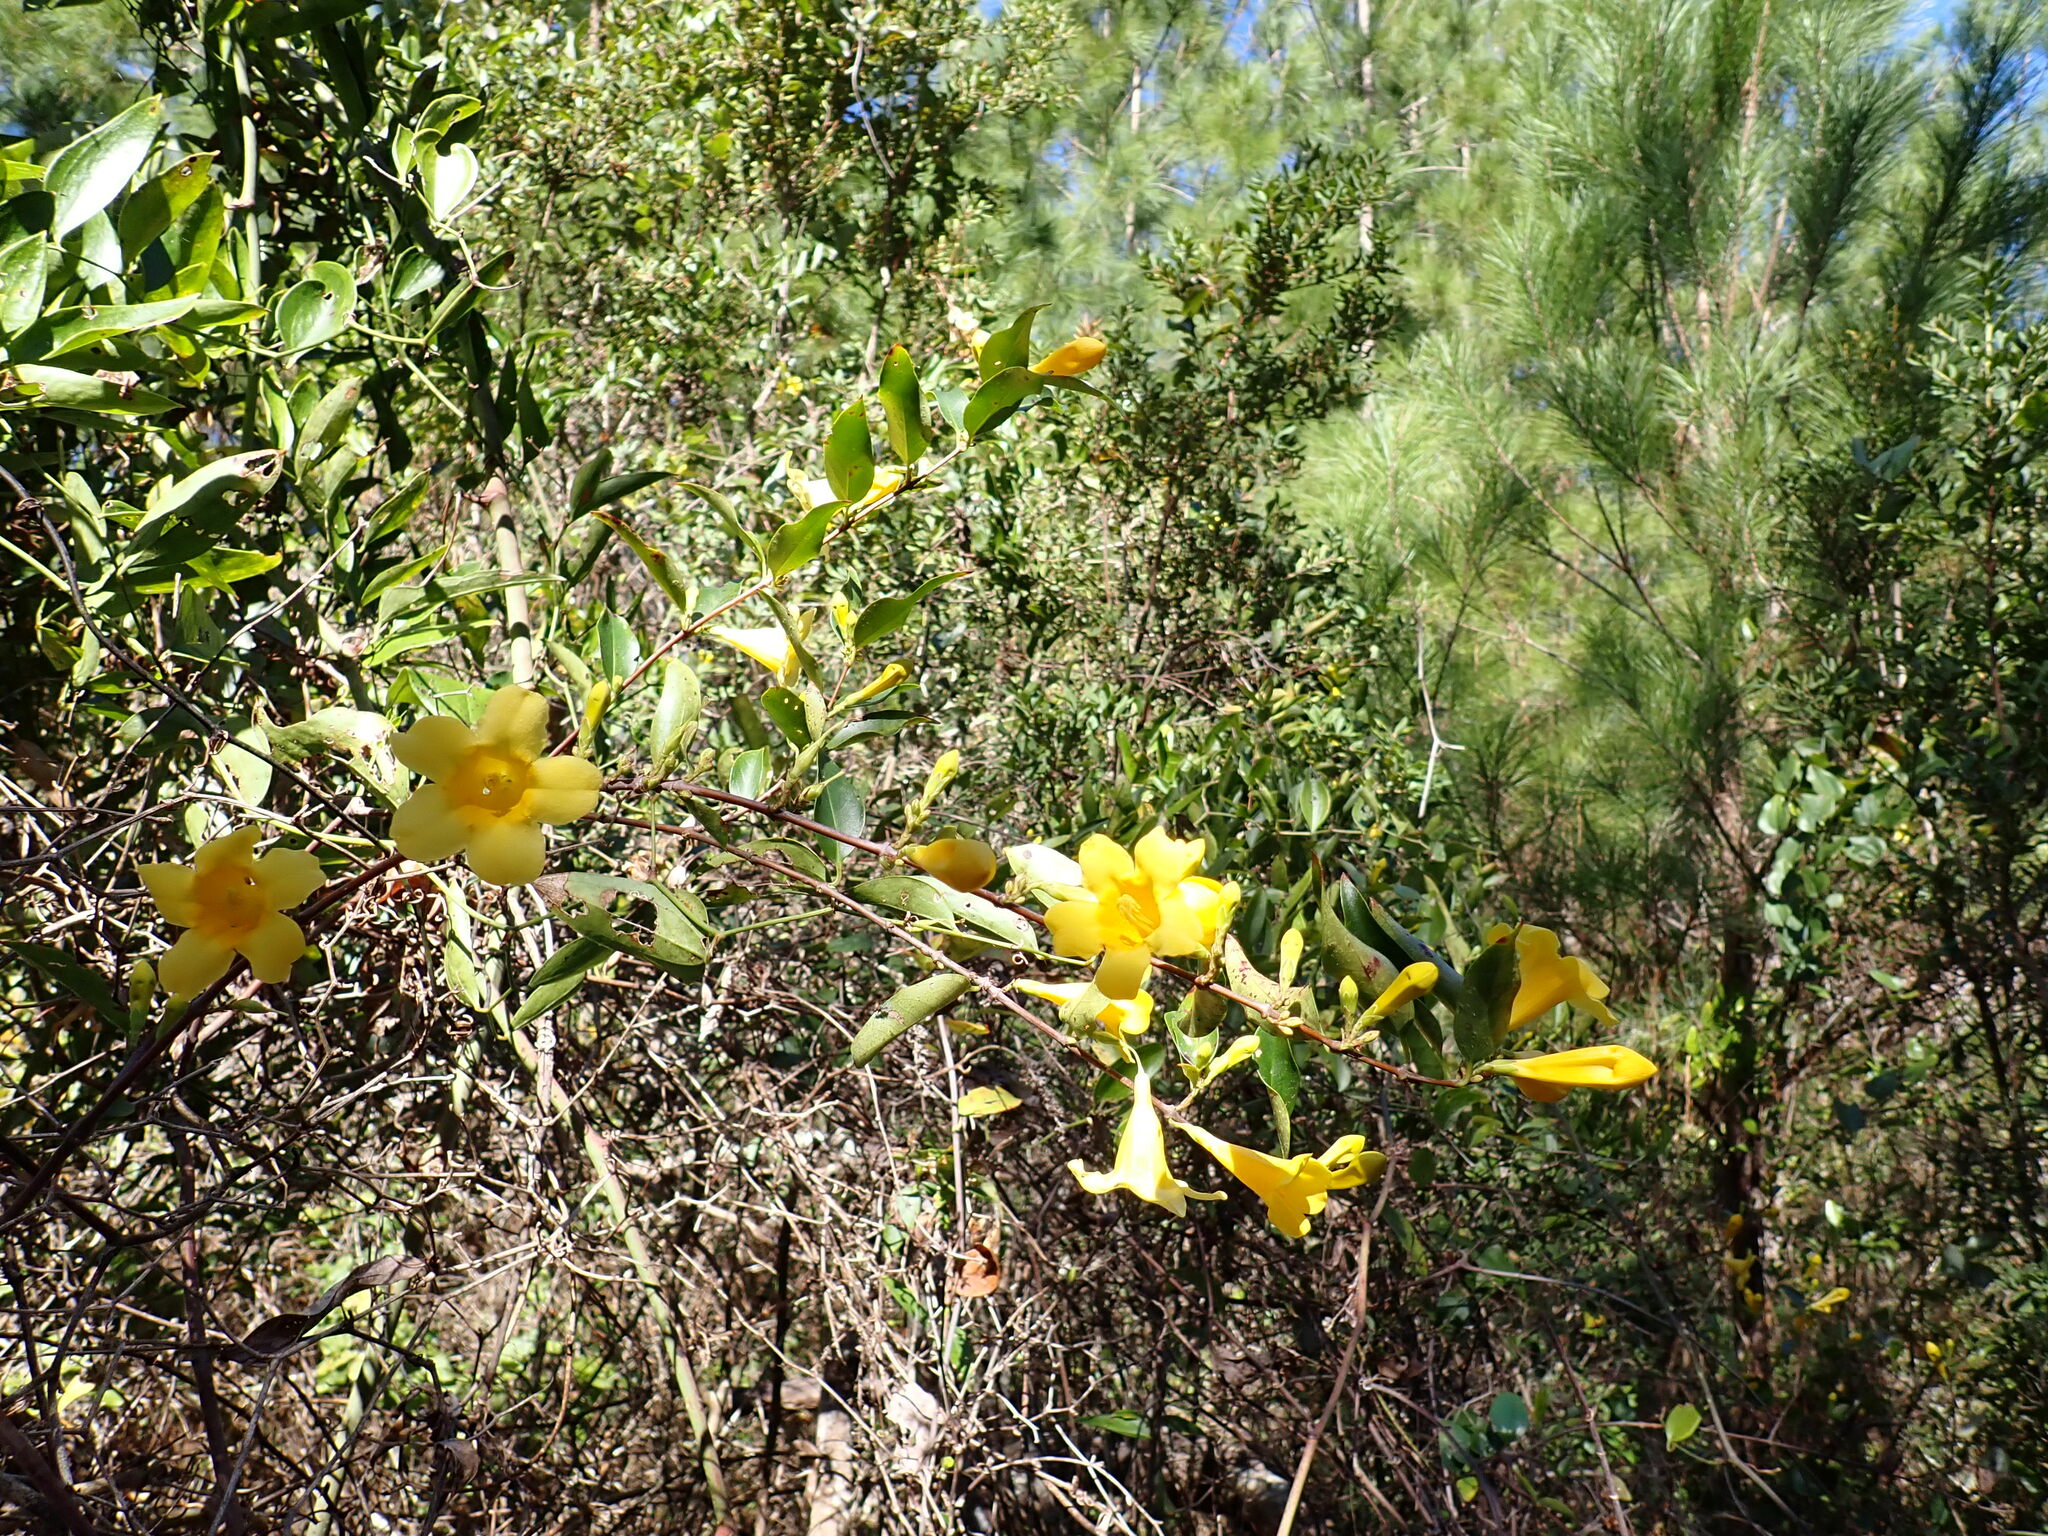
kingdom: Plantae
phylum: Tracheophyta
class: Magnoliopsida
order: Gentianales
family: Gelsemiaceae
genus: Gelsemium
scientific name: Gelsemium sempervirens
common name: Carolina-jasmine
